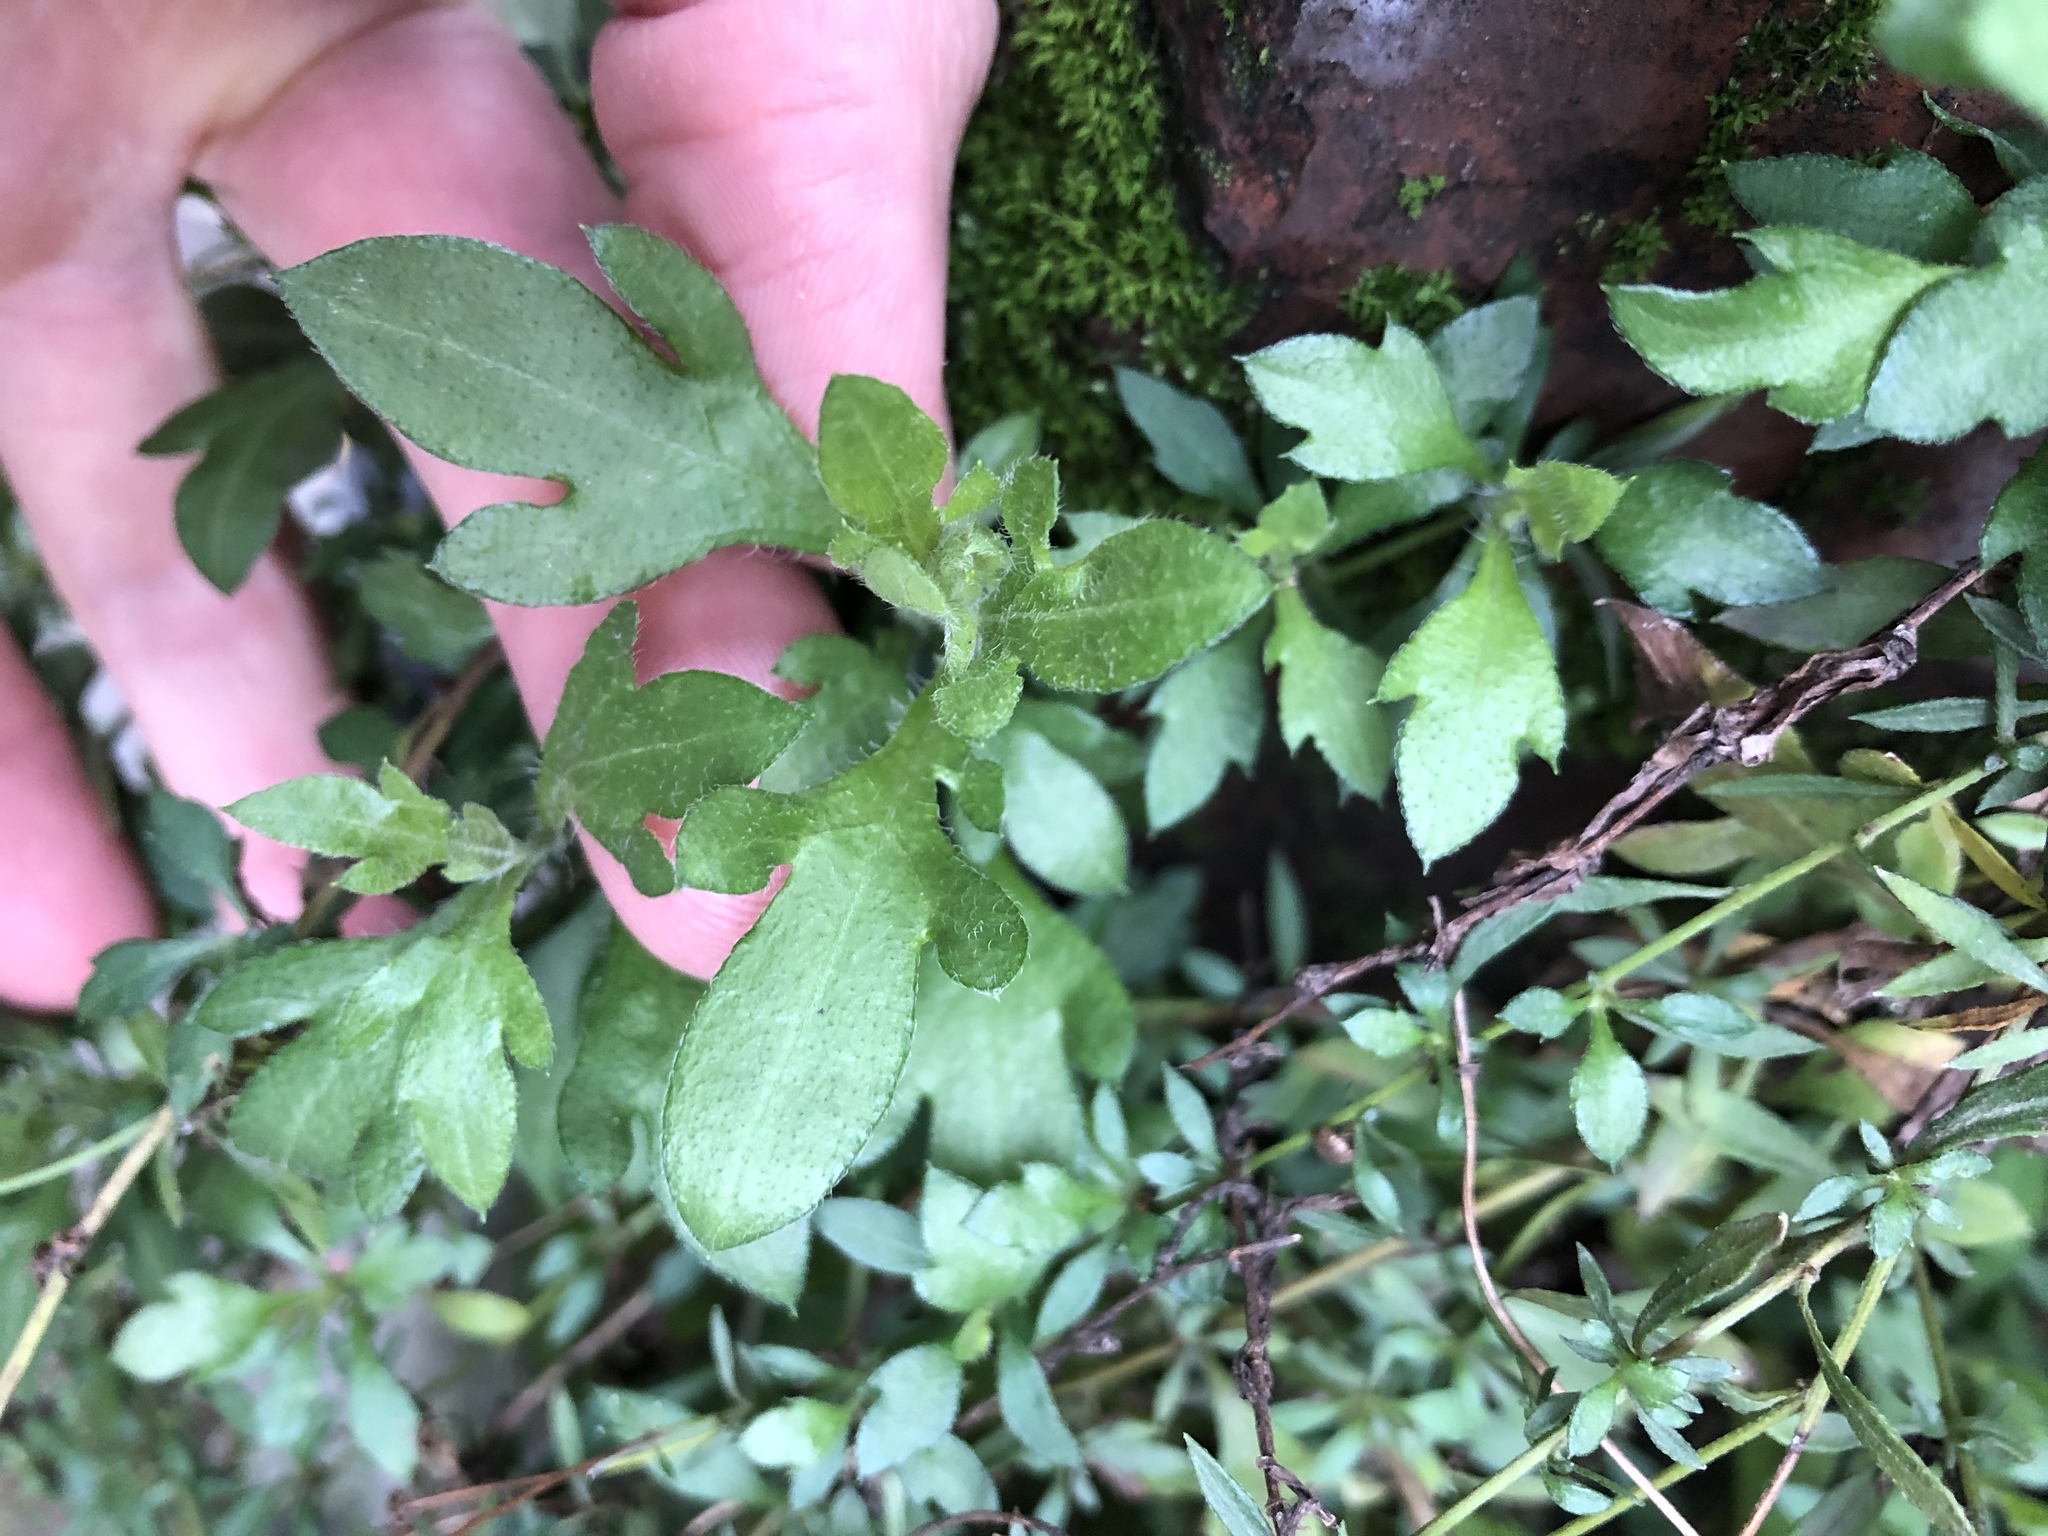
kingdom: Plantae
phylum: Tracheophyta
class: Magnoliopsida
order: Asterales
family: Asteraceae
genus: Erigeron
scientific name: Erigeron karvinskianus
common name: Mexican fleabane
